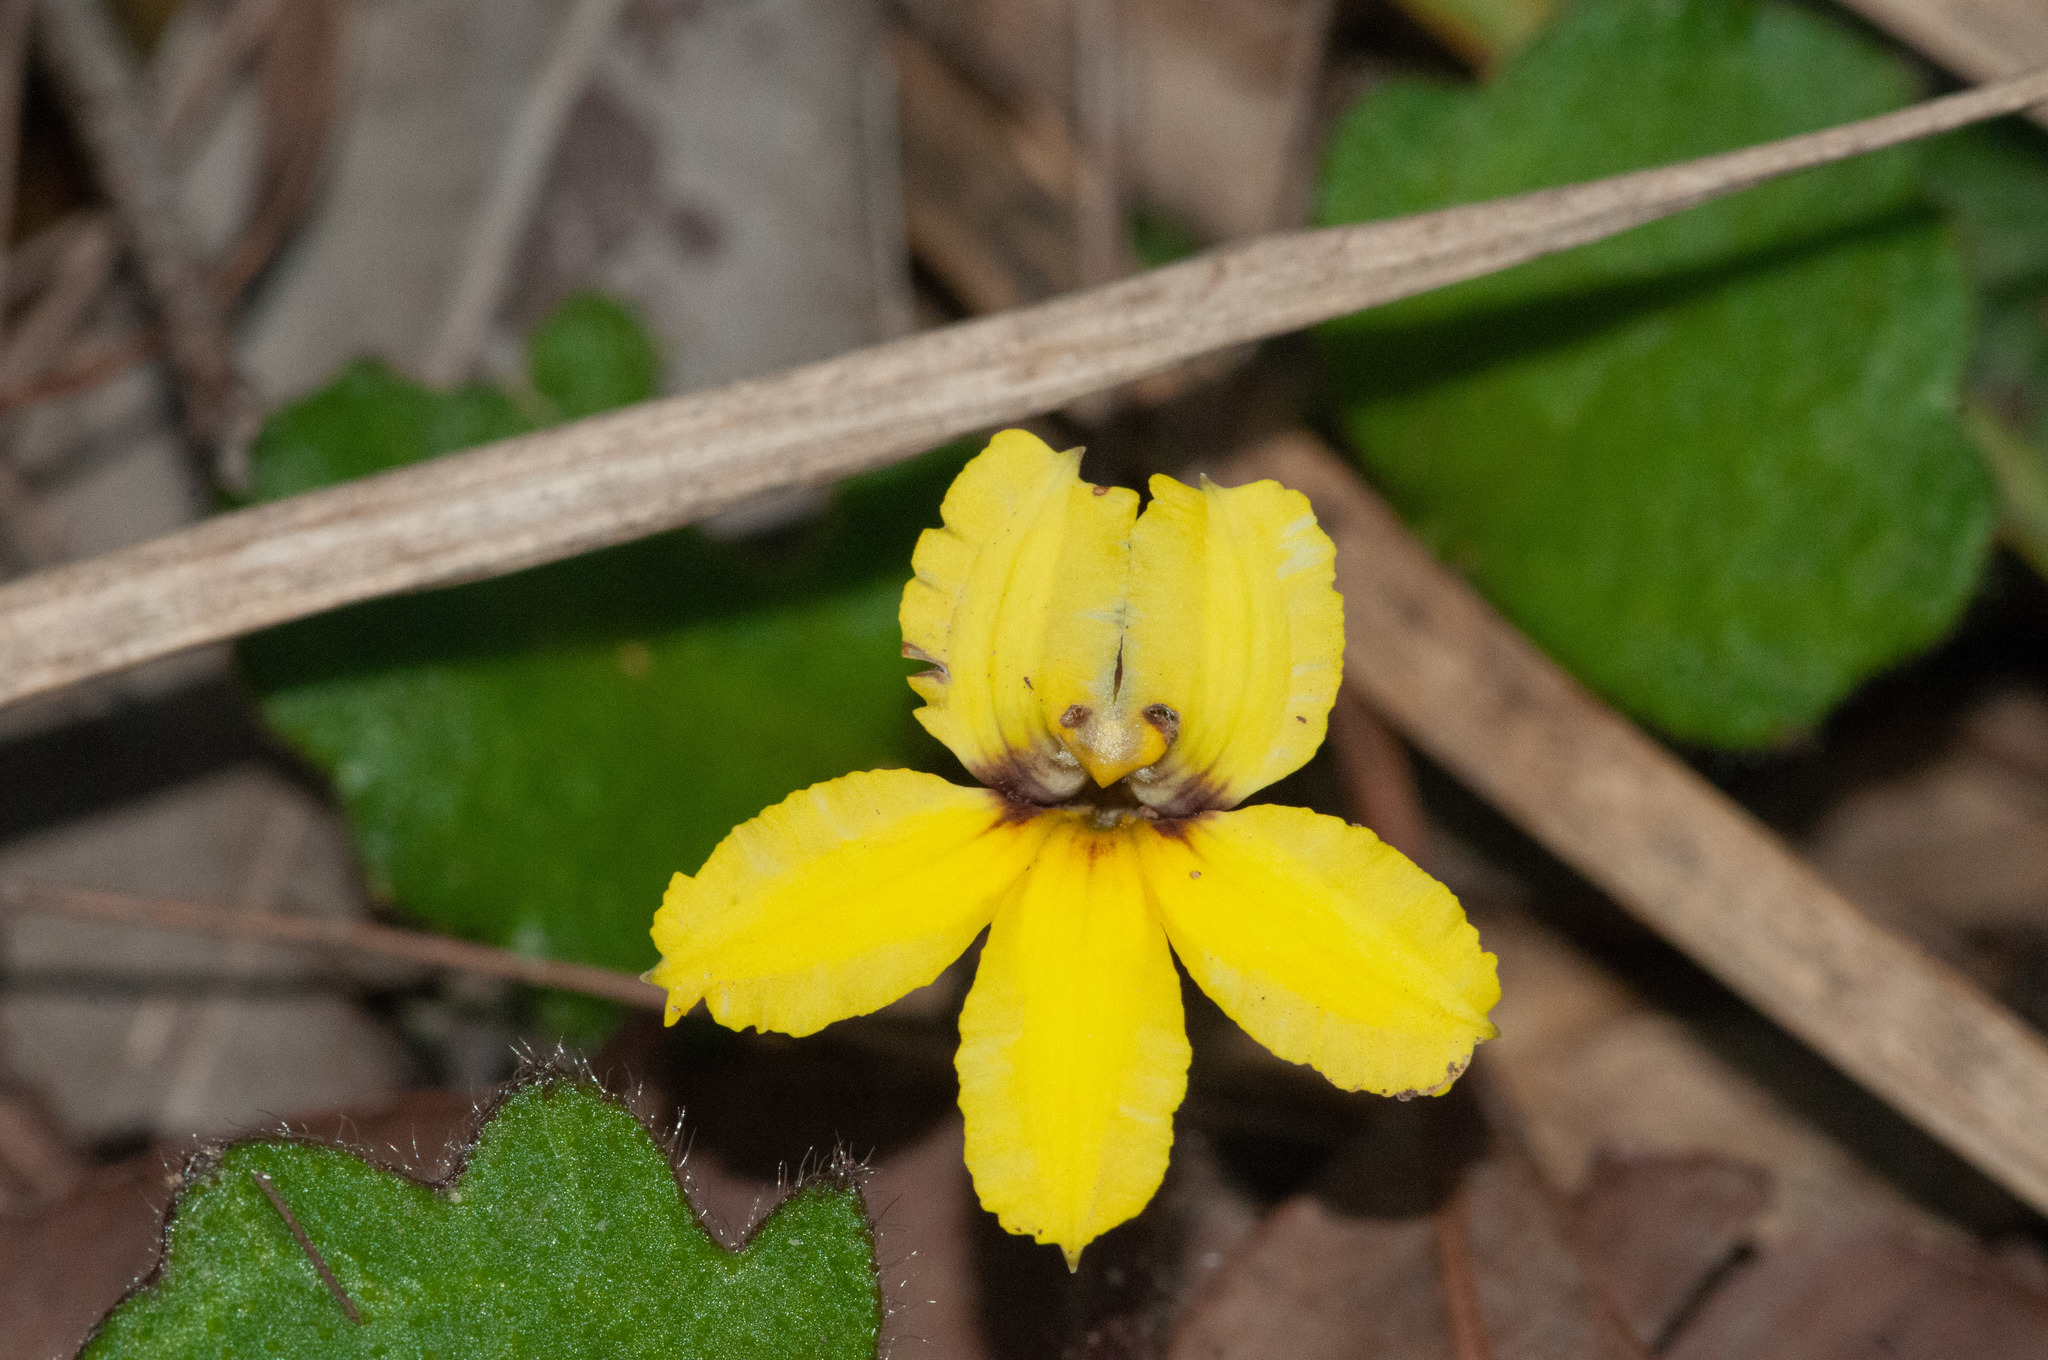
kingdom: Plantae
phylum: Tracheophyta
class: Magnoliopsida
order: Asterales
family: Goodeniaceae
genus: Goodenia
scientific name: Goodenia rotundifolia
